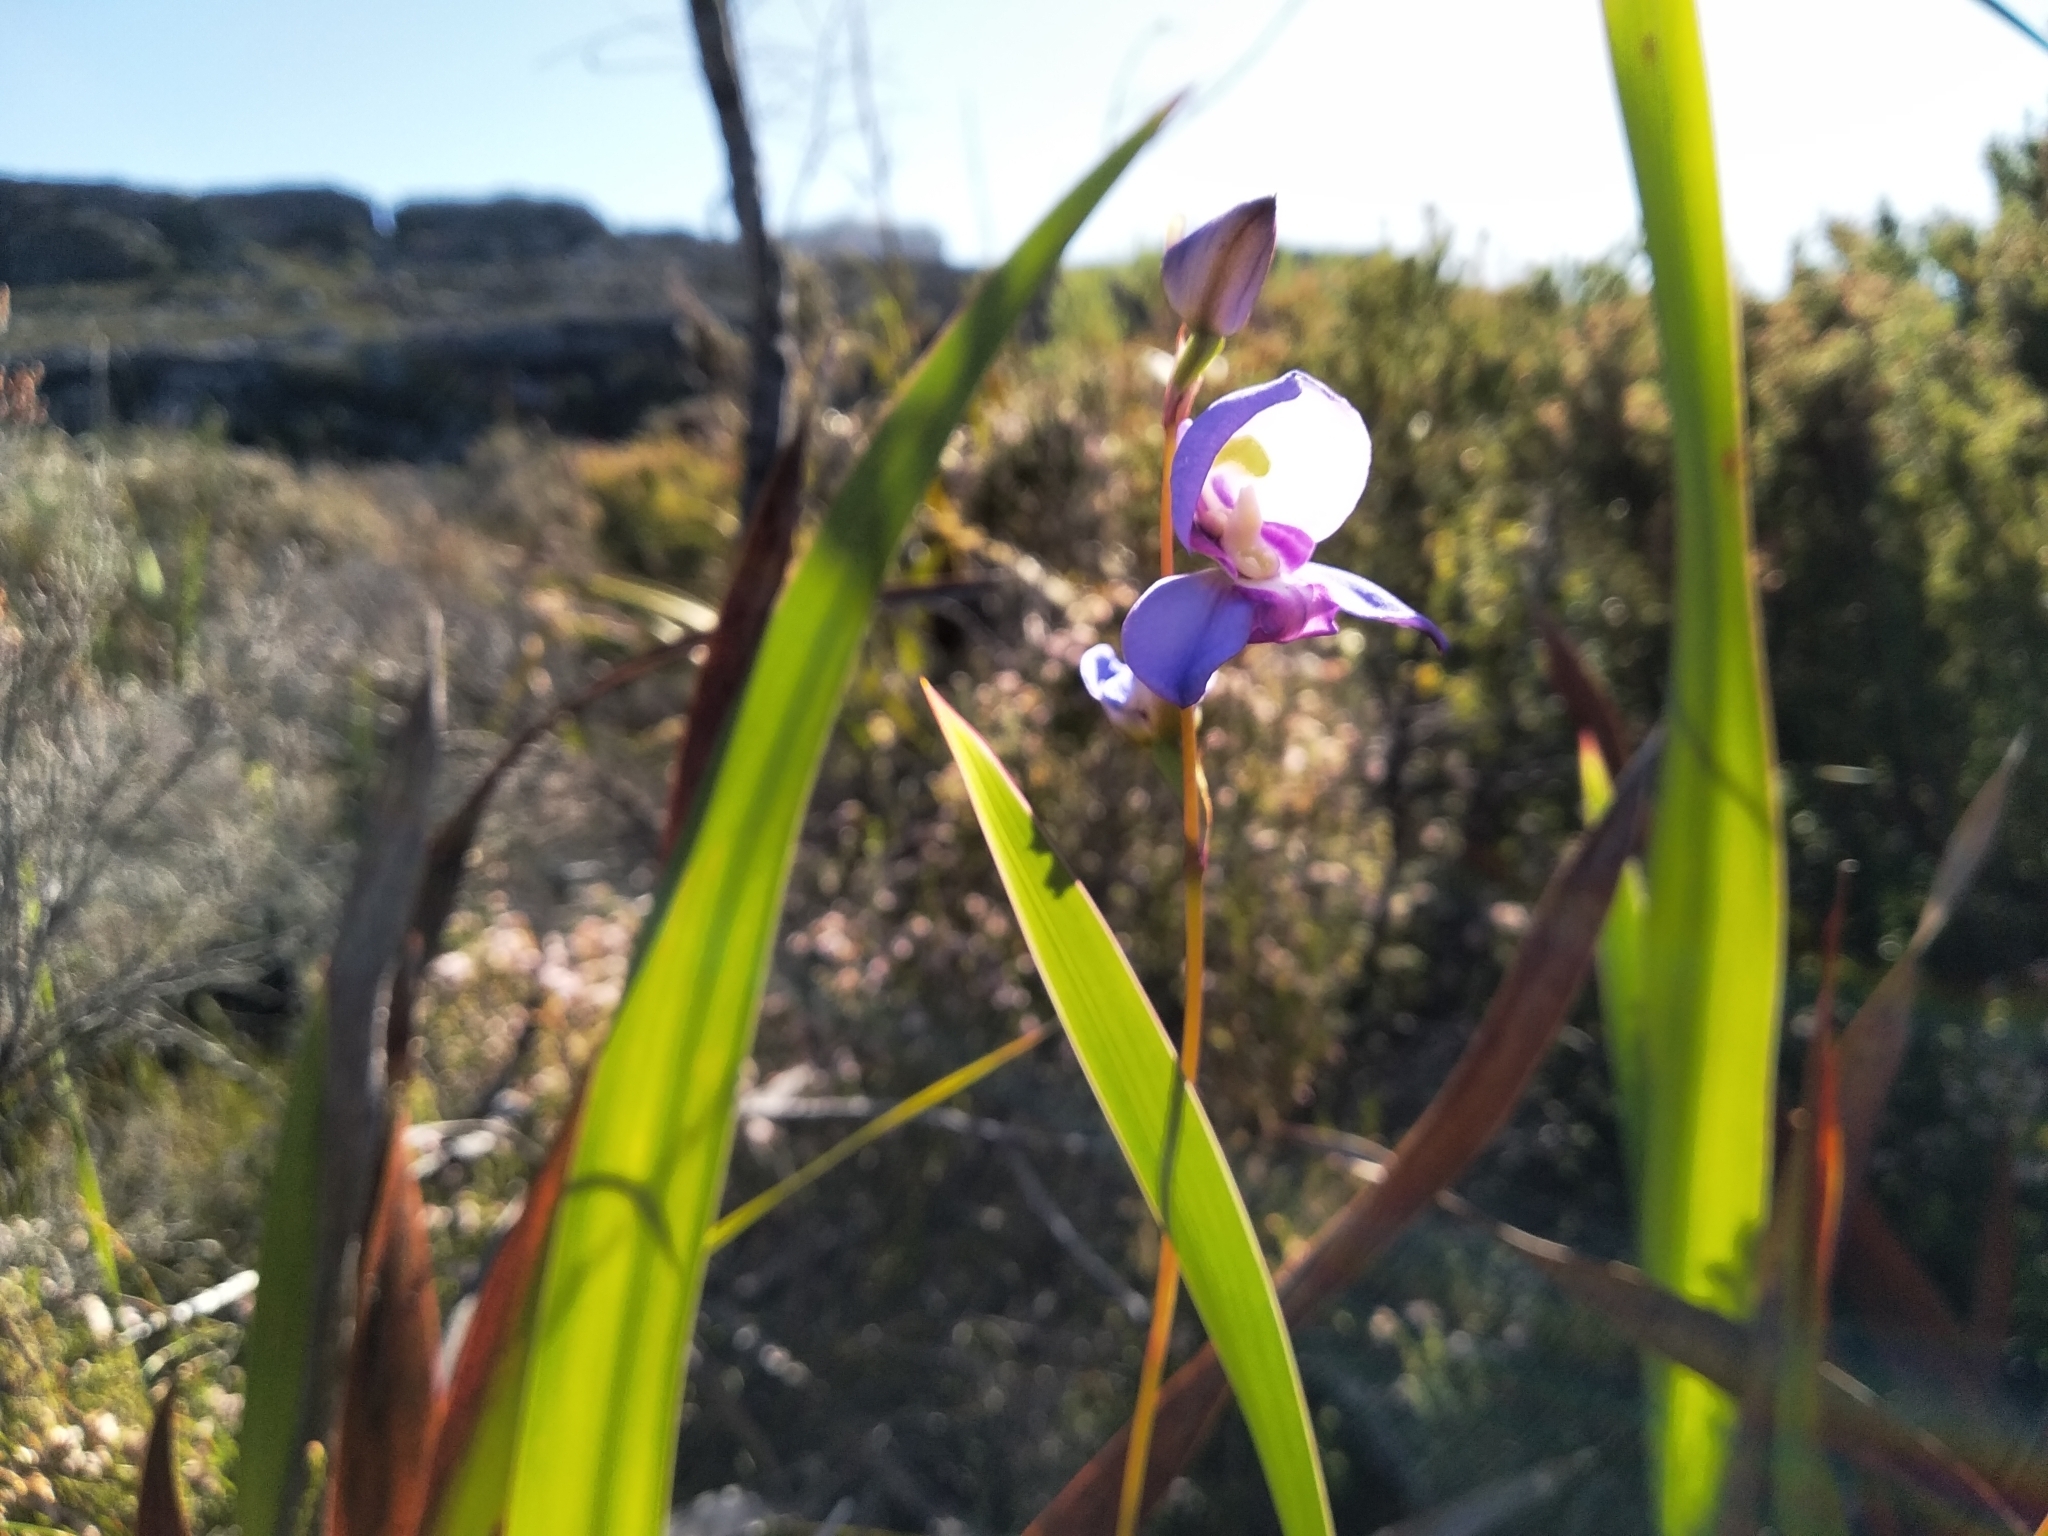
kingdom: Plantae
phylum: Tracheophyta
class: Liliopsida
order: Asparagales
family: Orchidaceae
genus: Disa
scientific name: Disa graminifolia
